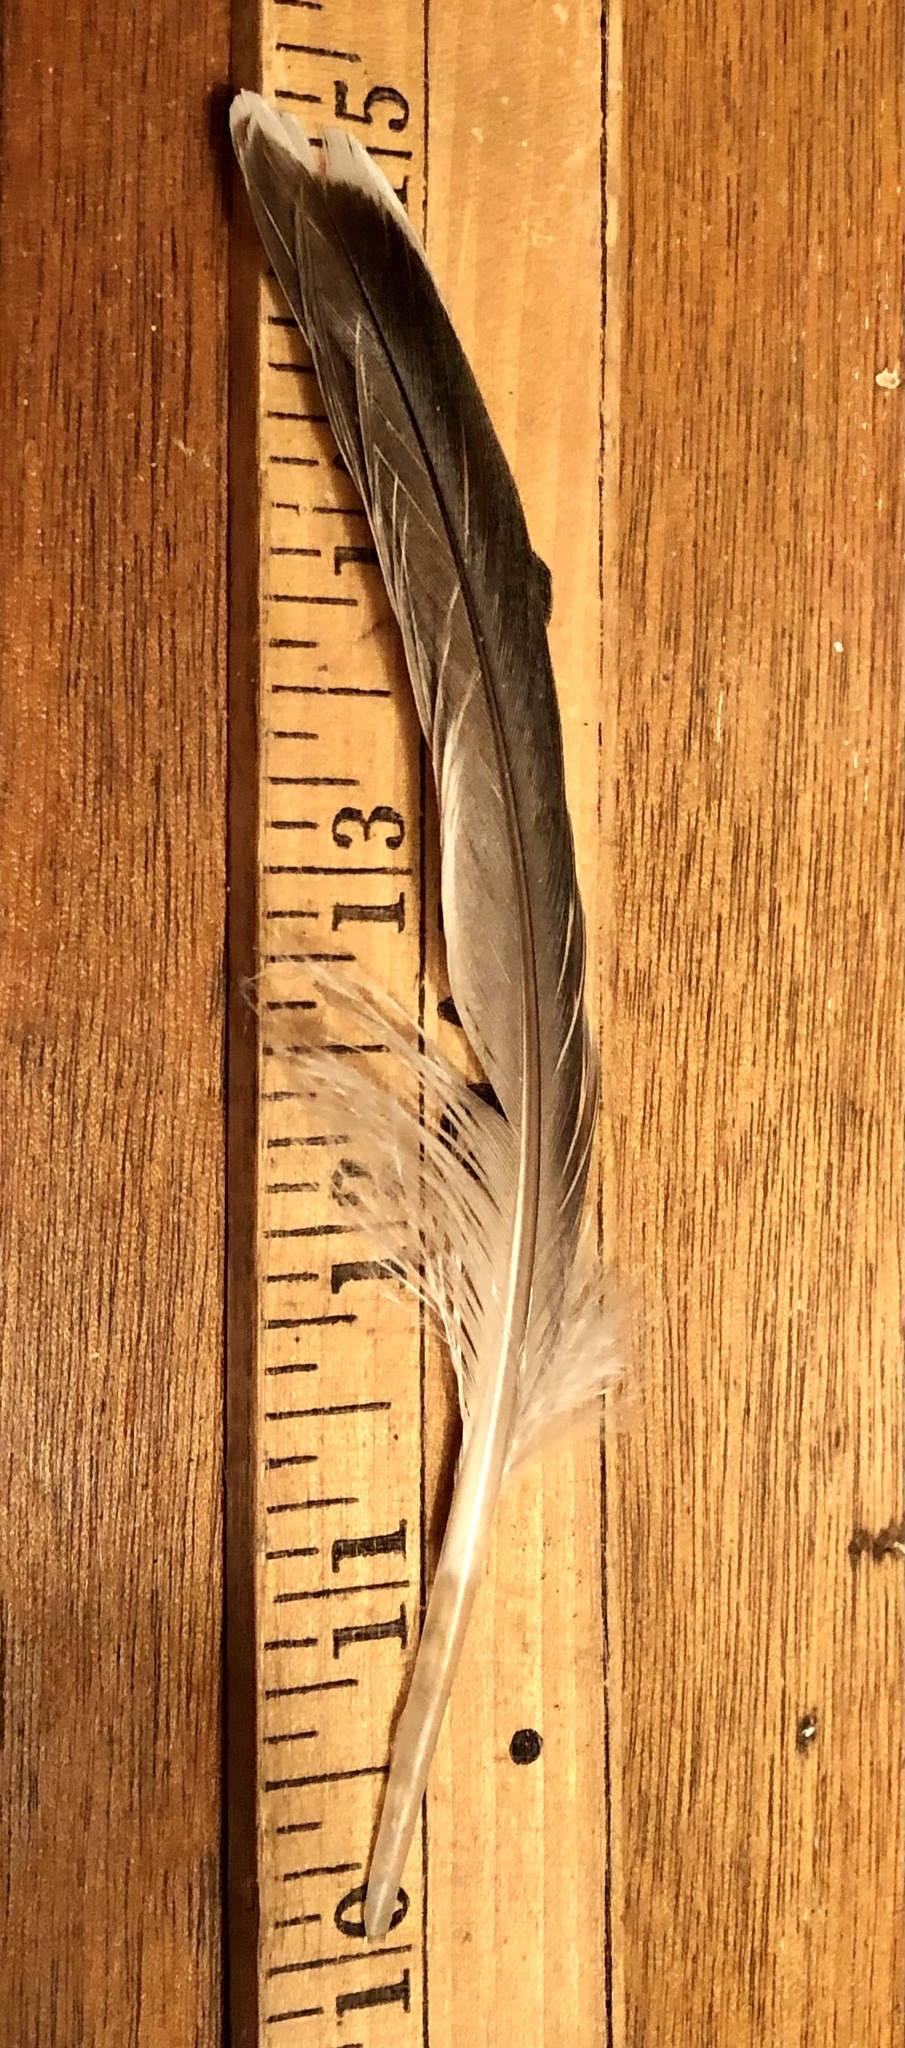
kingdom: Animalia
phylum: Chordata
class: Aves
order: Anseriformes
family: Anatidae
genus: Anas
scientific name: Anas platyrhynchos
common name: Mallard
